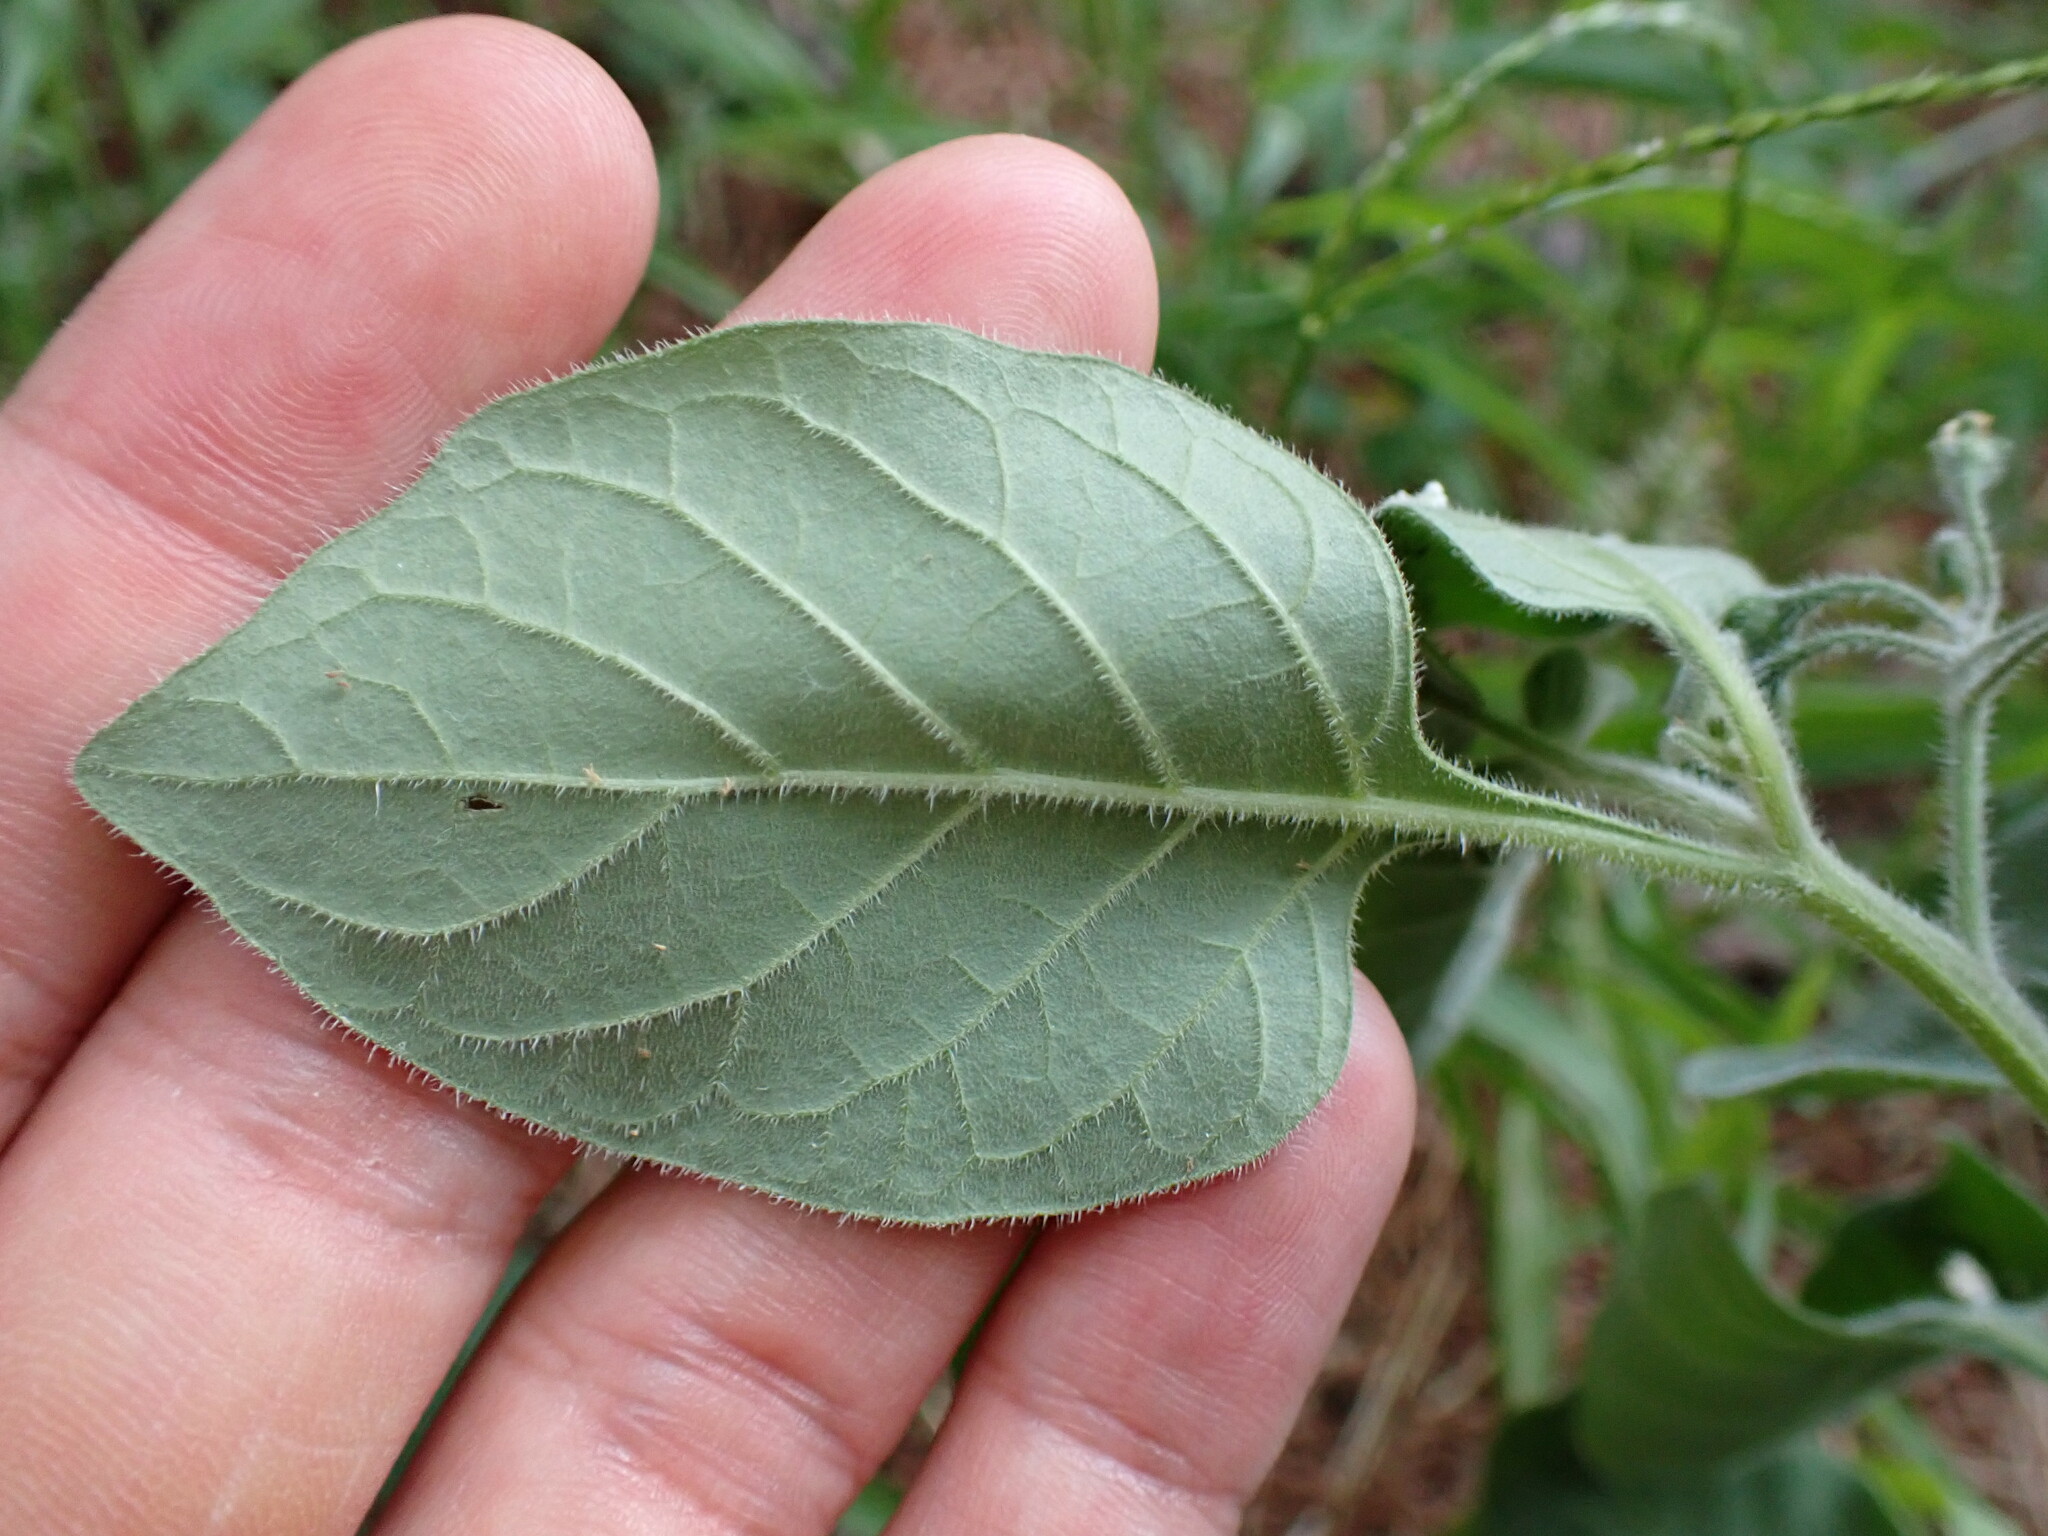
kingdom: Plantae
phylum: Tracheophyta
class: Magnoliopsida
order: Solanales
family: Solanaceae
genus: Solanum
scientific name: Solanum villosum
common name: Red nightshade
